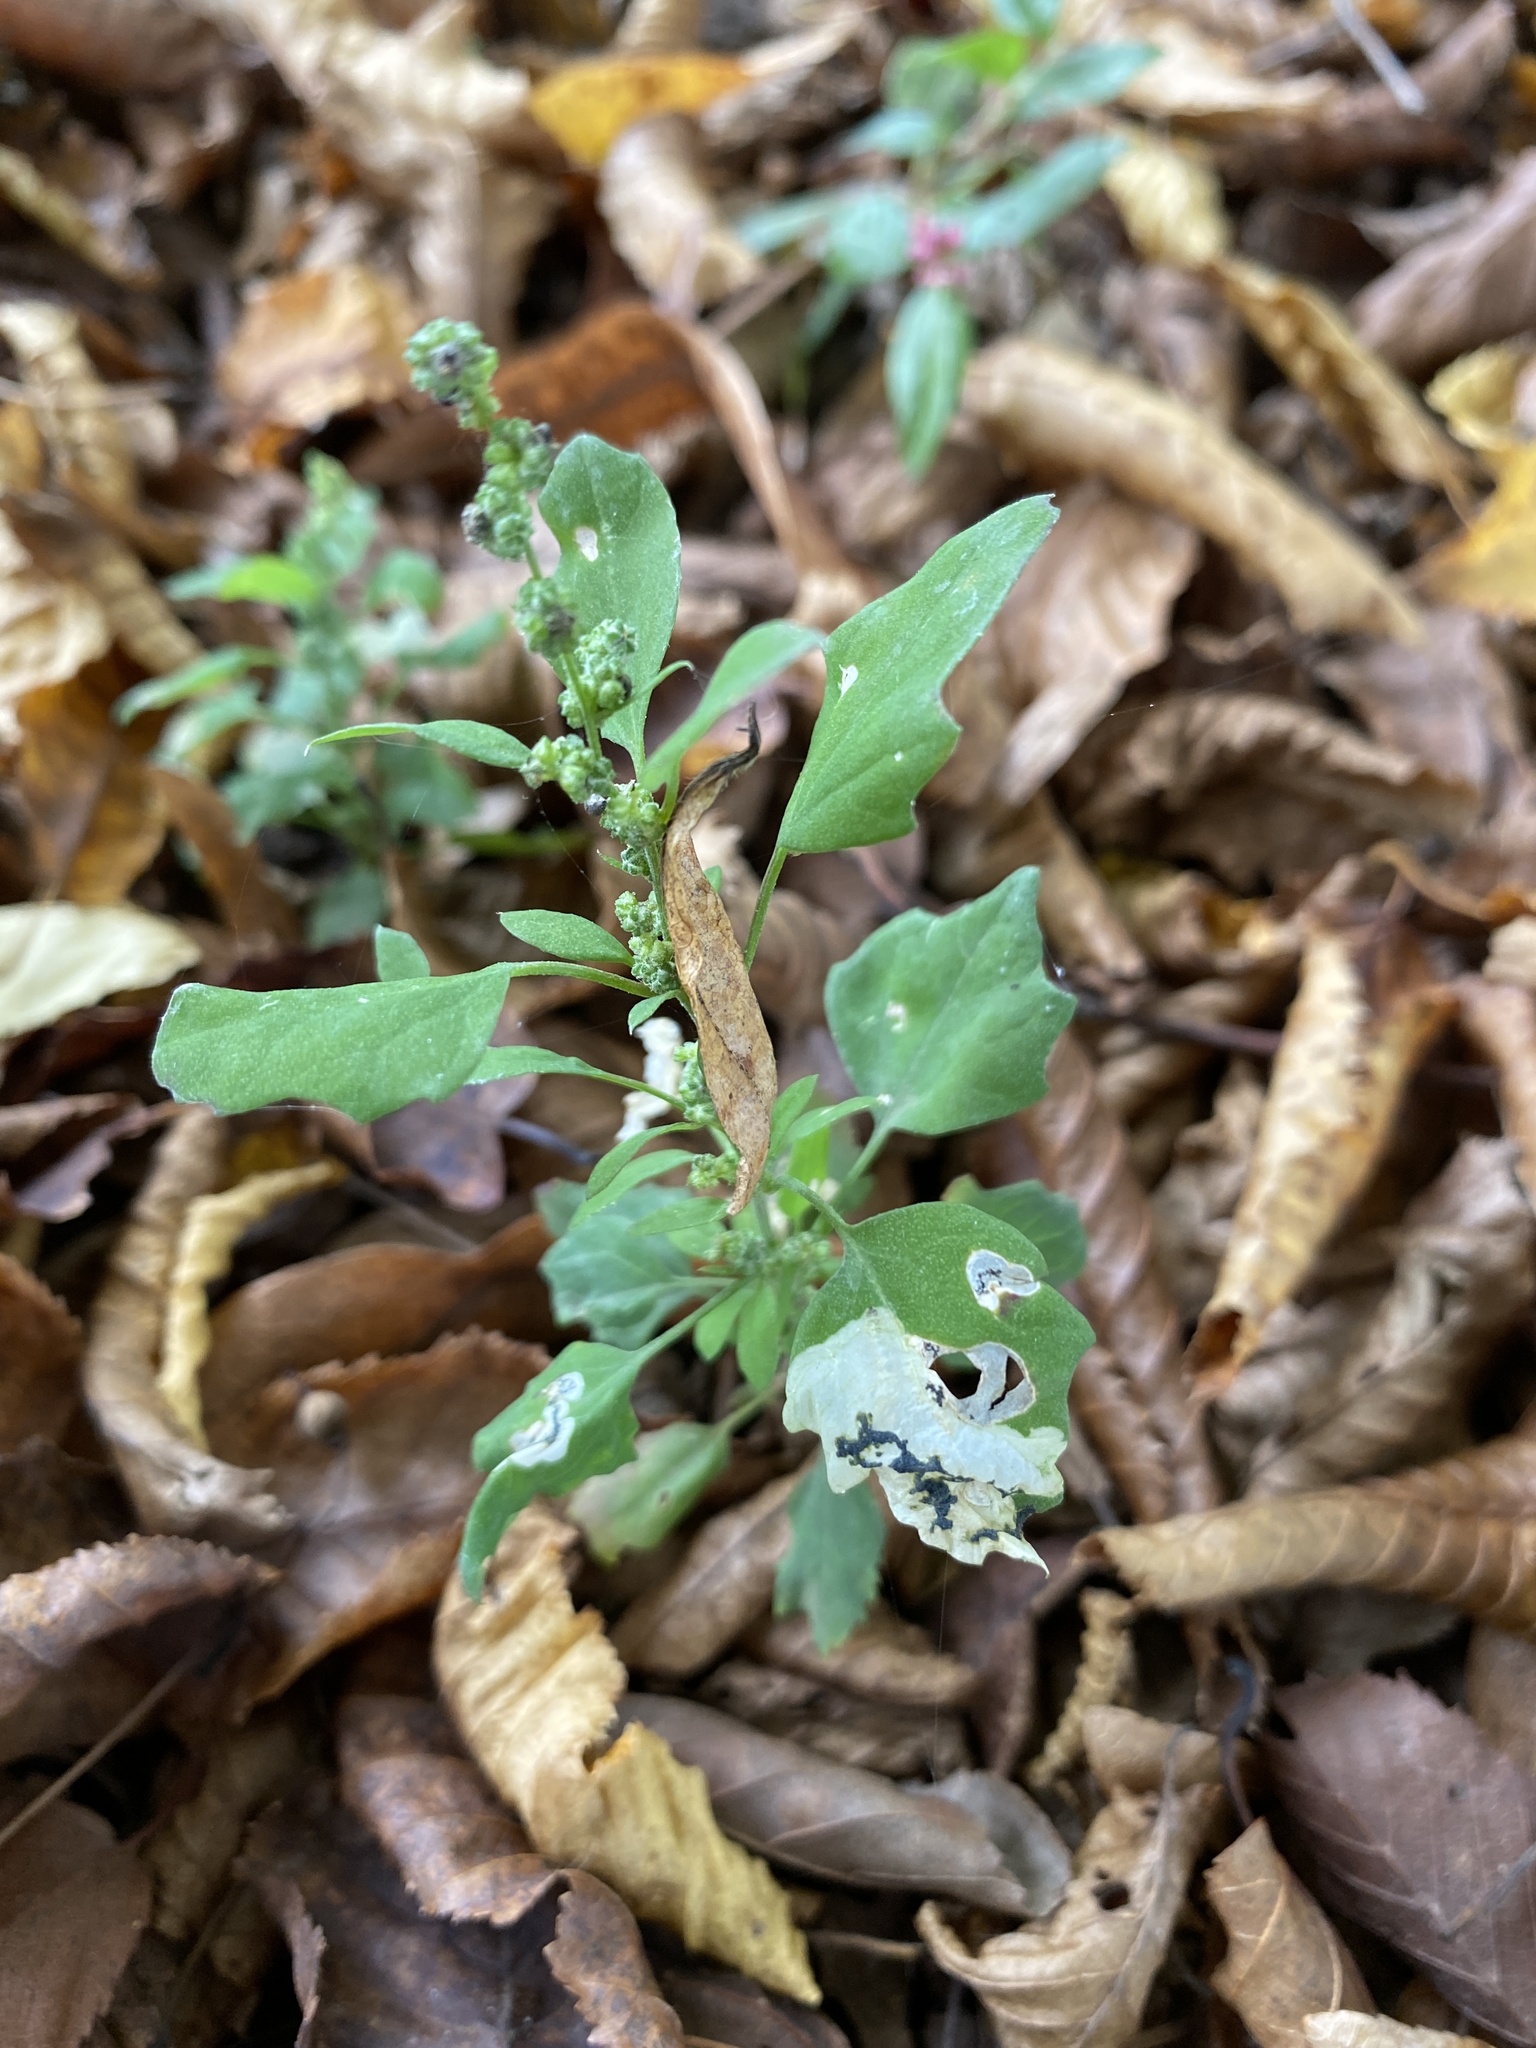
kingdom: Animalia
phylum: Arthropoda
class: Insecta
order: Lepidoptera
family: Gelechiidae
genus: Chrysoesthia
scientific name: Chrysoesthia sexguttella
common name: Moth
